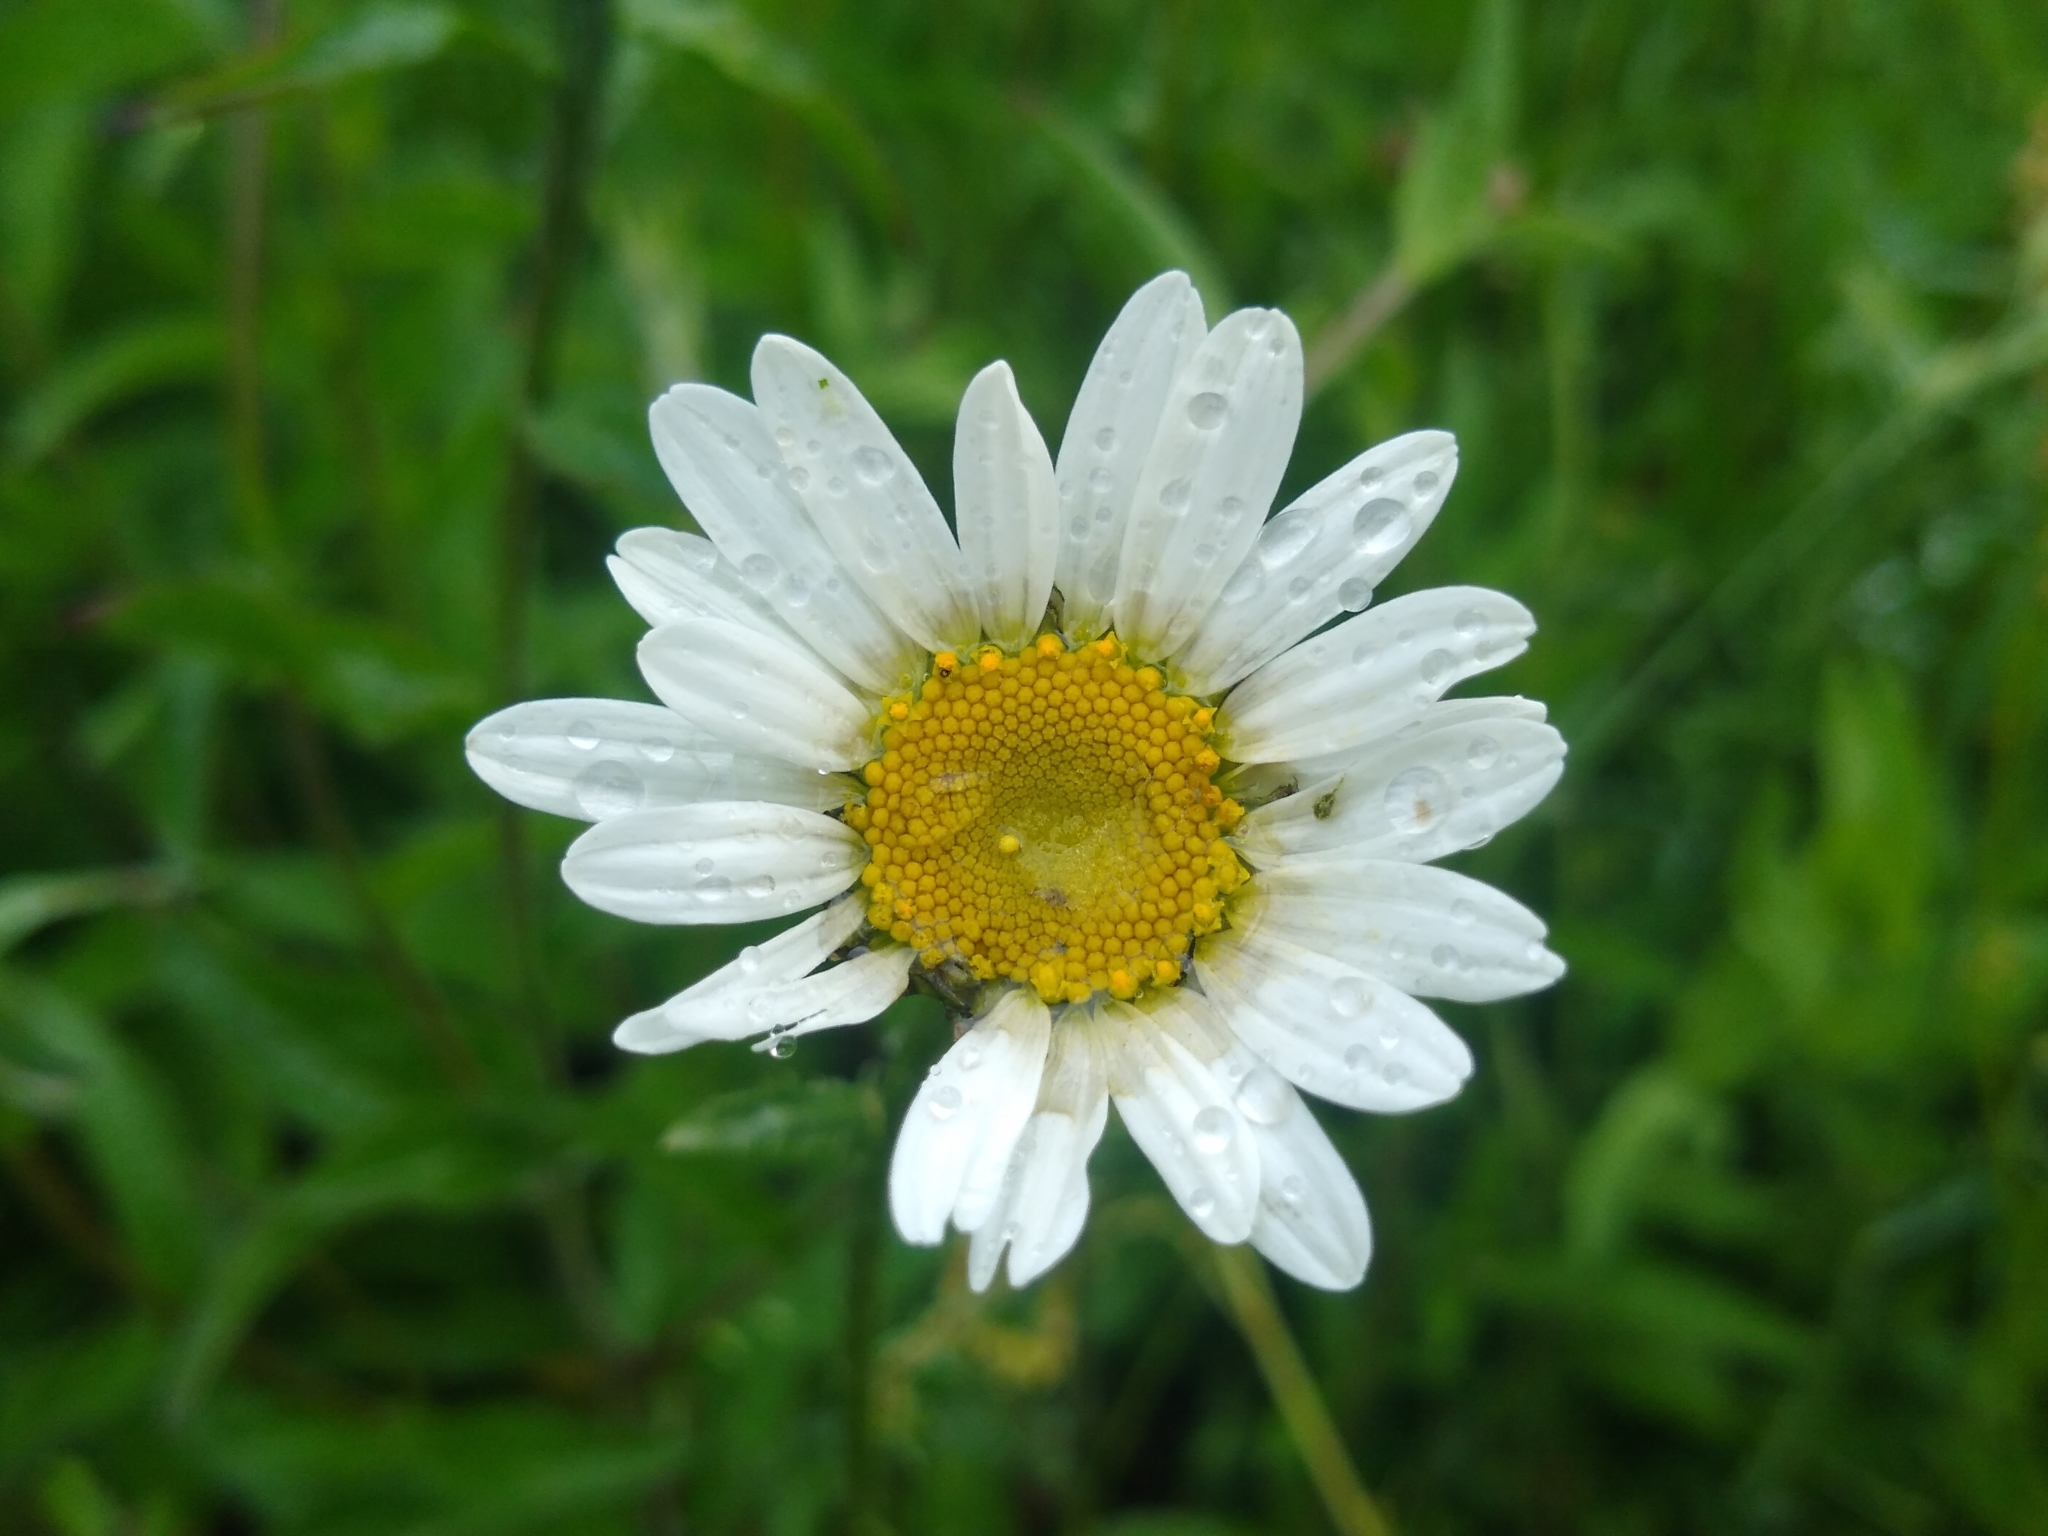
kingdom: Plantae
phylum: Tracheophyta
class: Magnoliopsida
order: Asterales
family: Asteraceae
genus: Leucanthemum
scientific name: Leucanthemum vulgare
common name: Oxeye daisy
